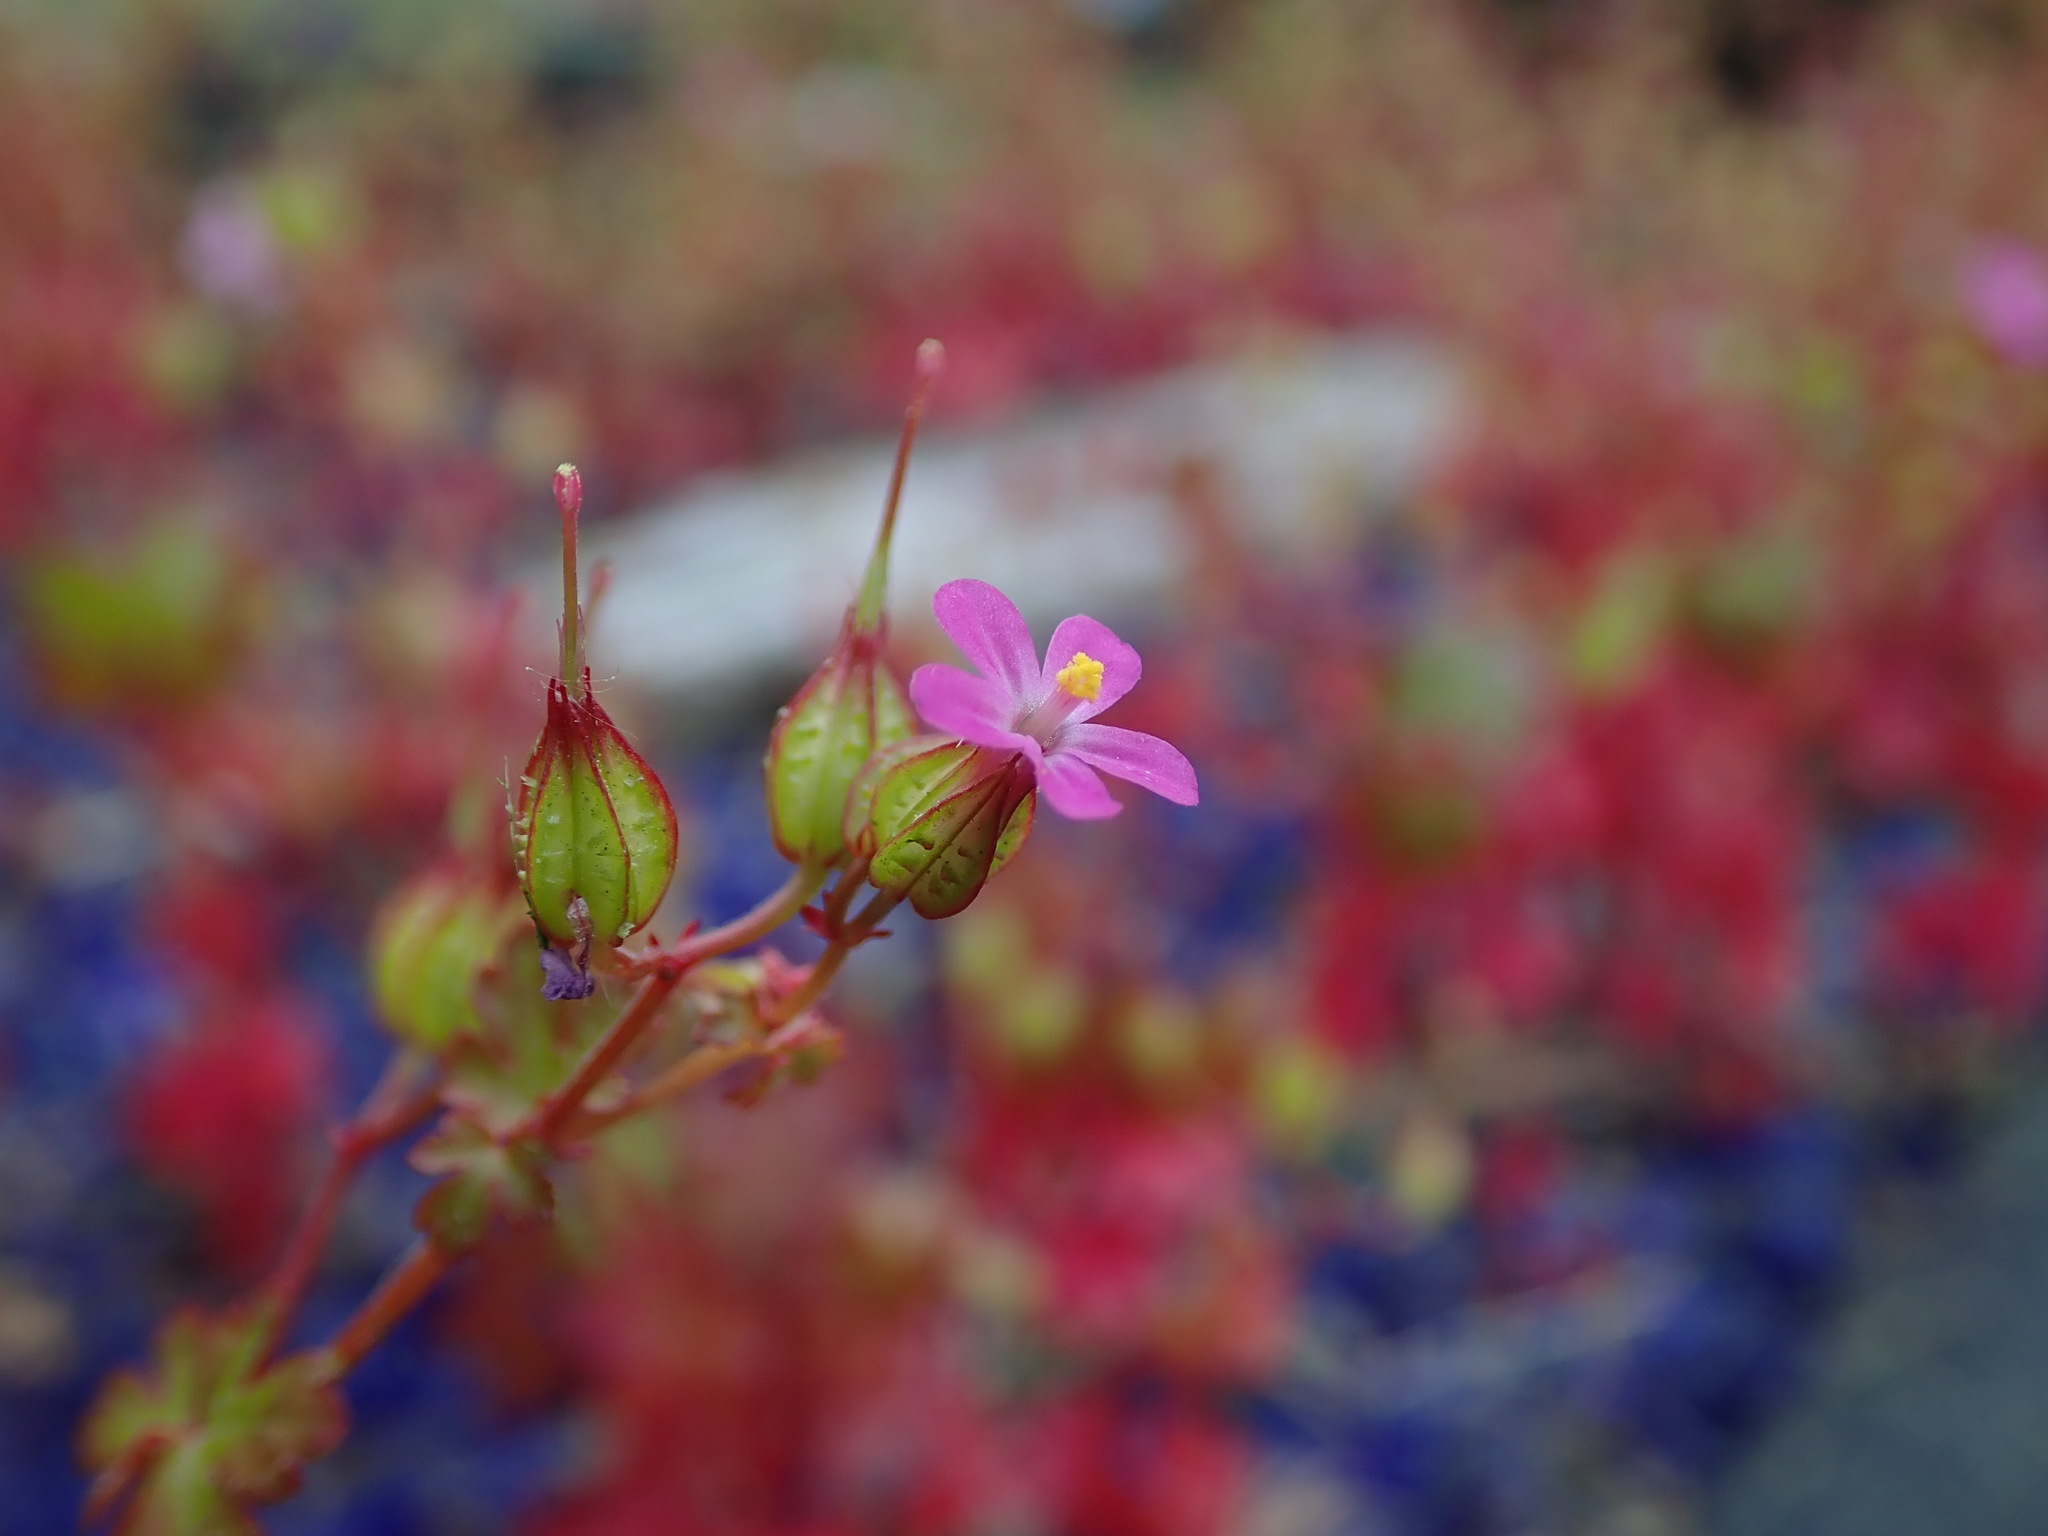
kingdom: Plantae
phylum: Tracheophyta
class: Magnoliopsida
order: Geraniales
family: Geraniaceae
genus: Geranium
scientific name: Geranium lucidum
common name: Shining crane's-bill
